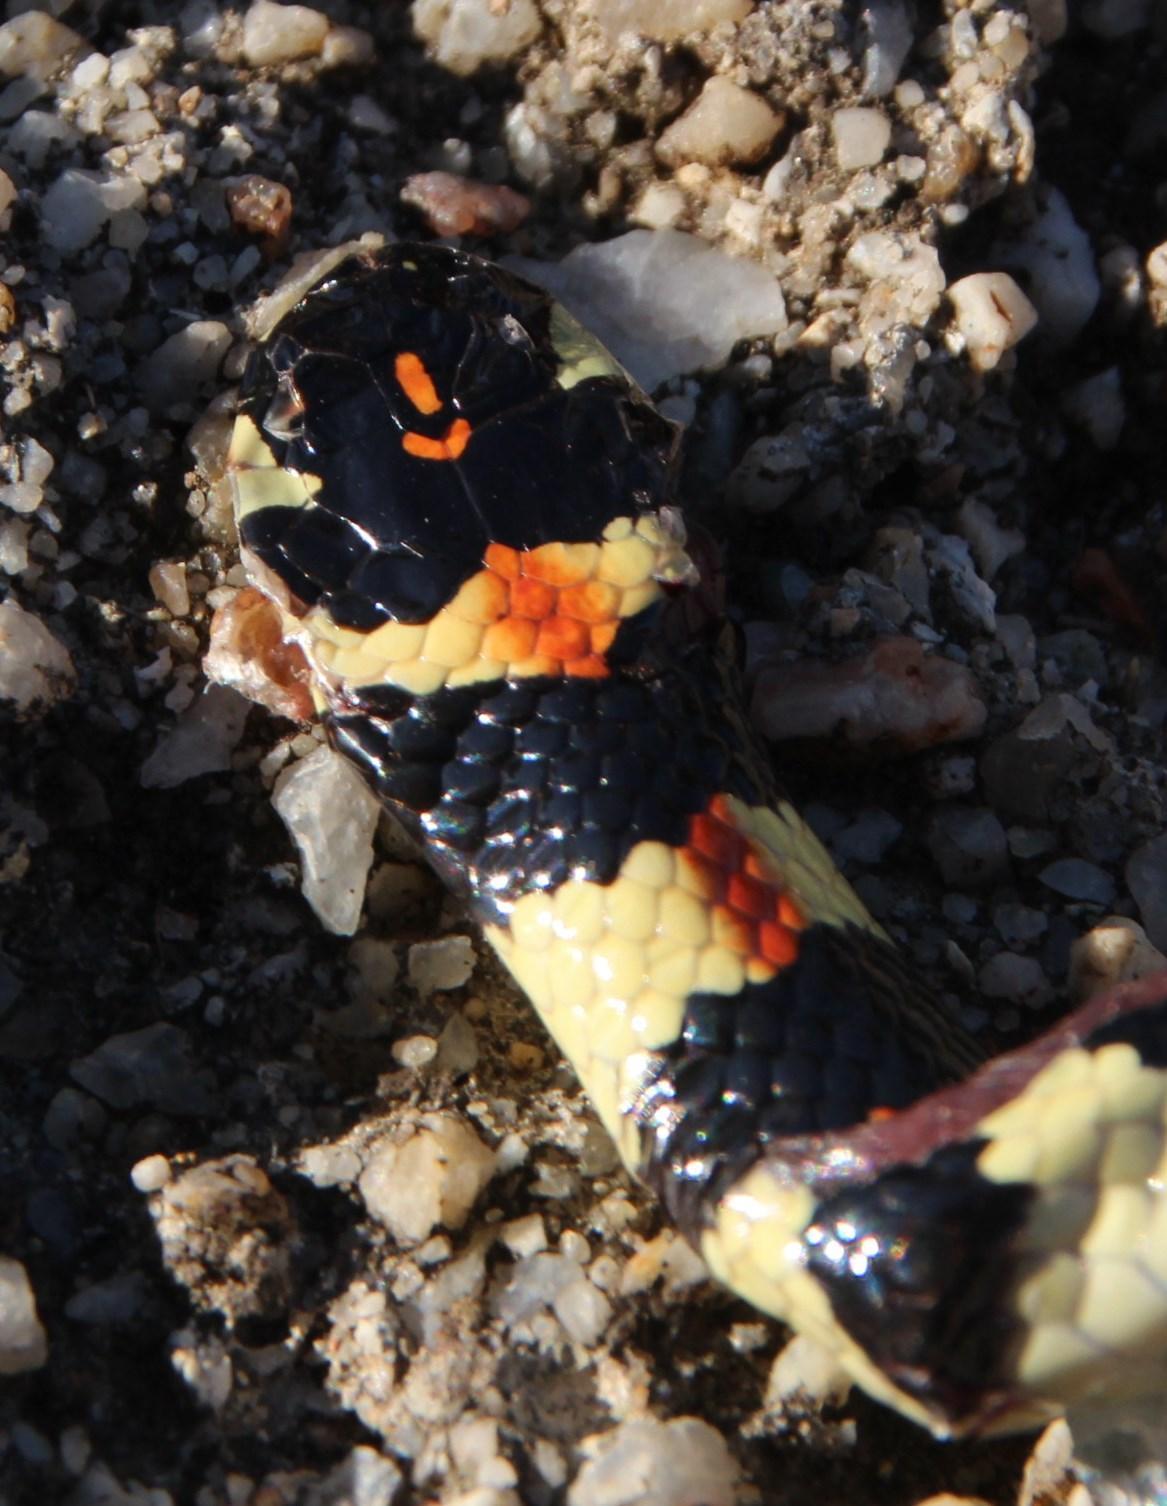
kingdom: Animalia
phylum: Chordata
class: Squamata
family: Atractaspididae
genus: Homoroselaps
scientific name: Homoroselaps lacteus
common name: Spotted harlequin snake
